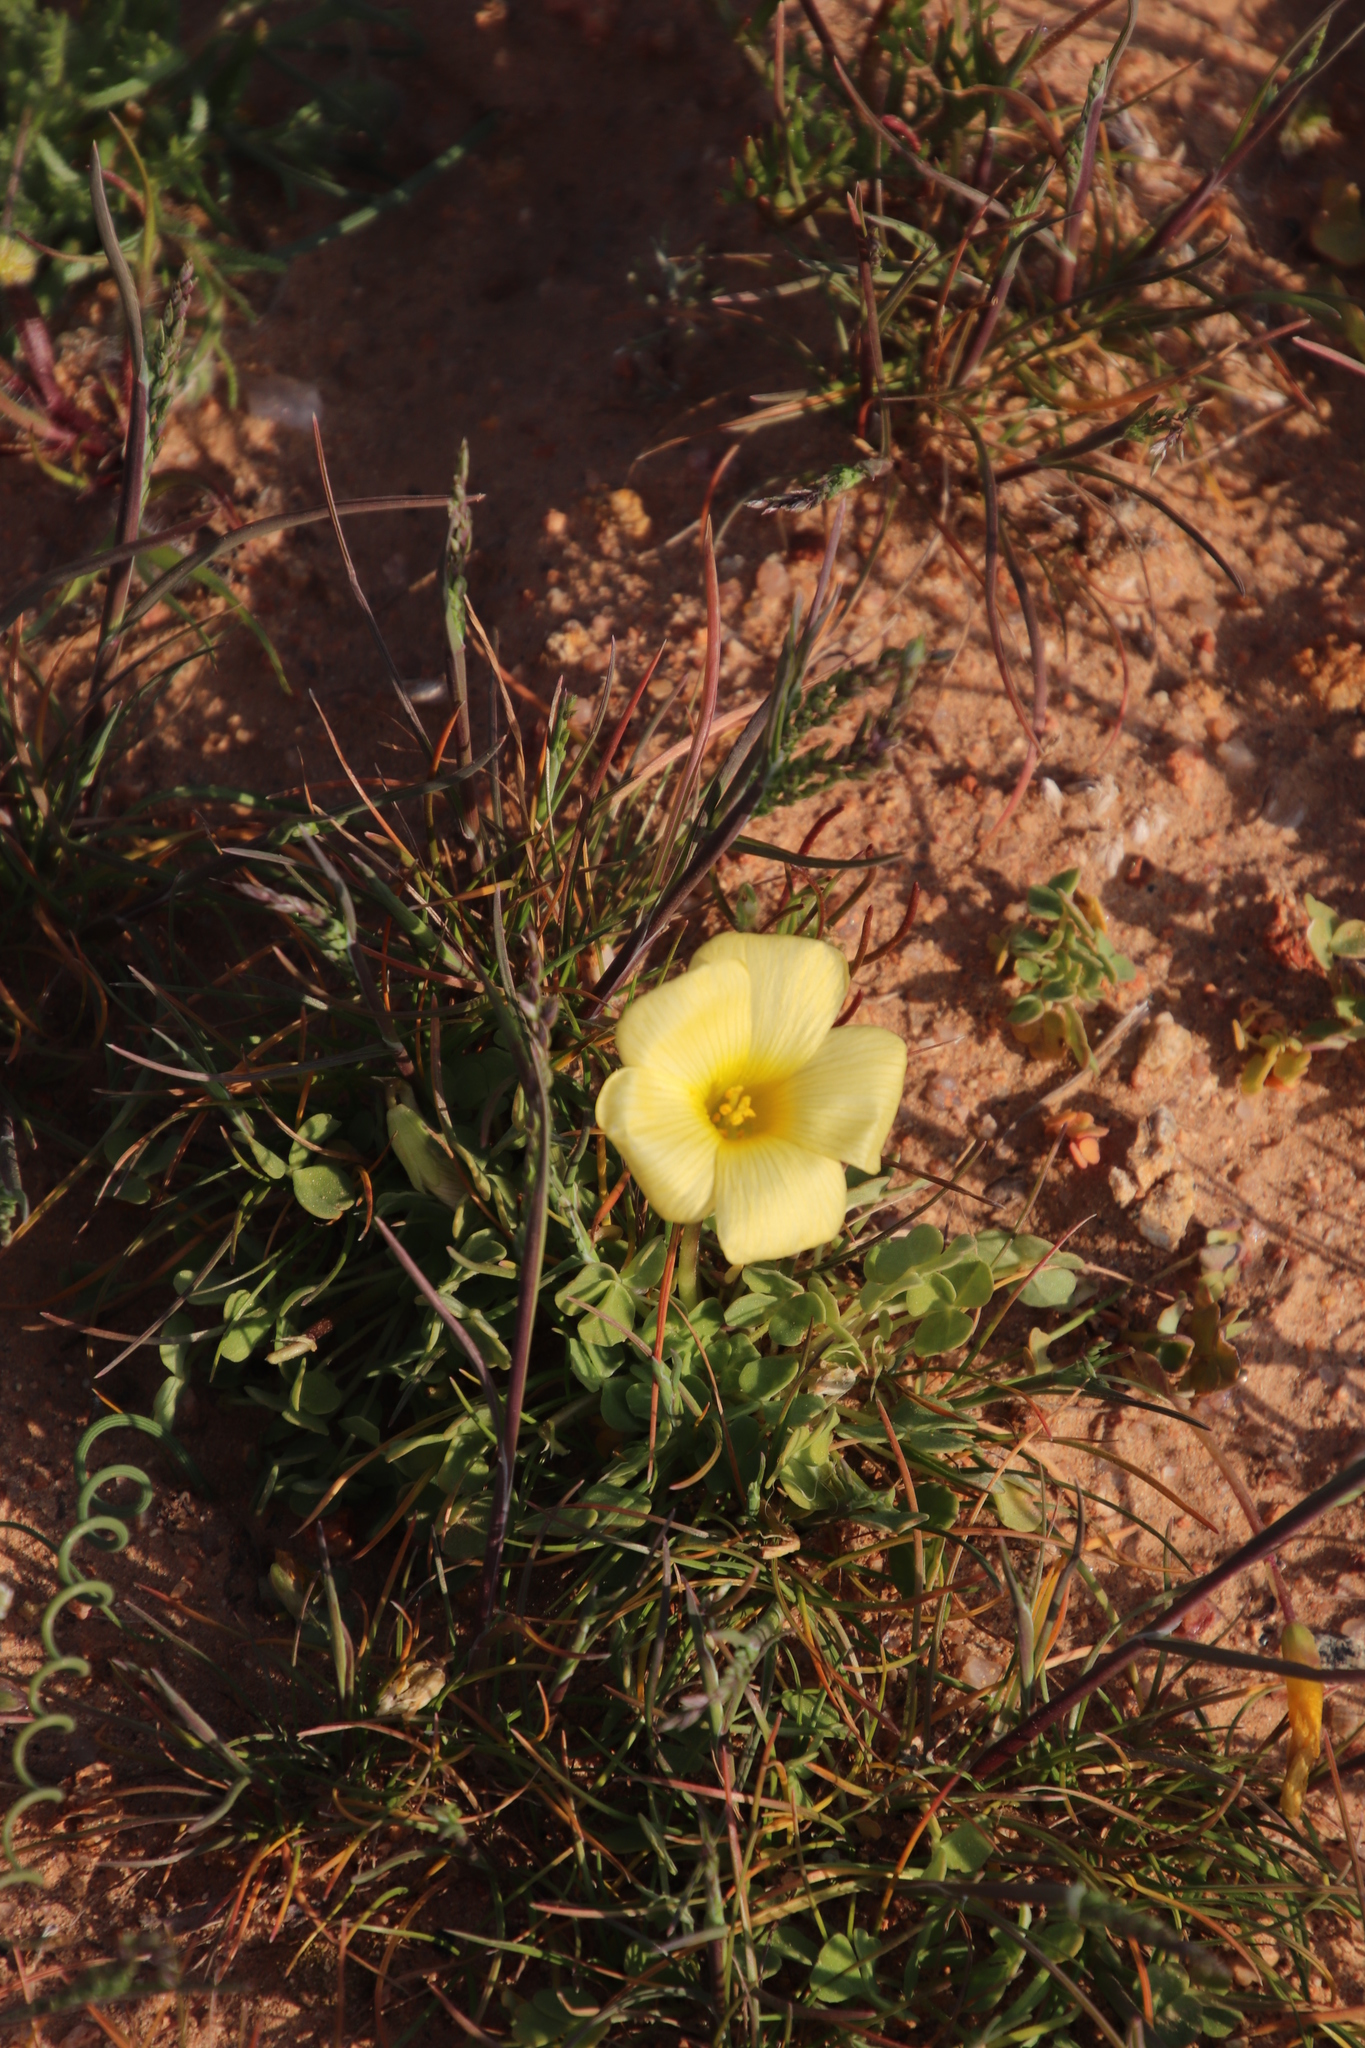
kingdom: Plantae
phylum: Tracheophyta
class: Magnoliopsida
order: Oxalidales
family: Oxalidaceae
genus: Oxalis
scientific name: Oxalis obtusa
